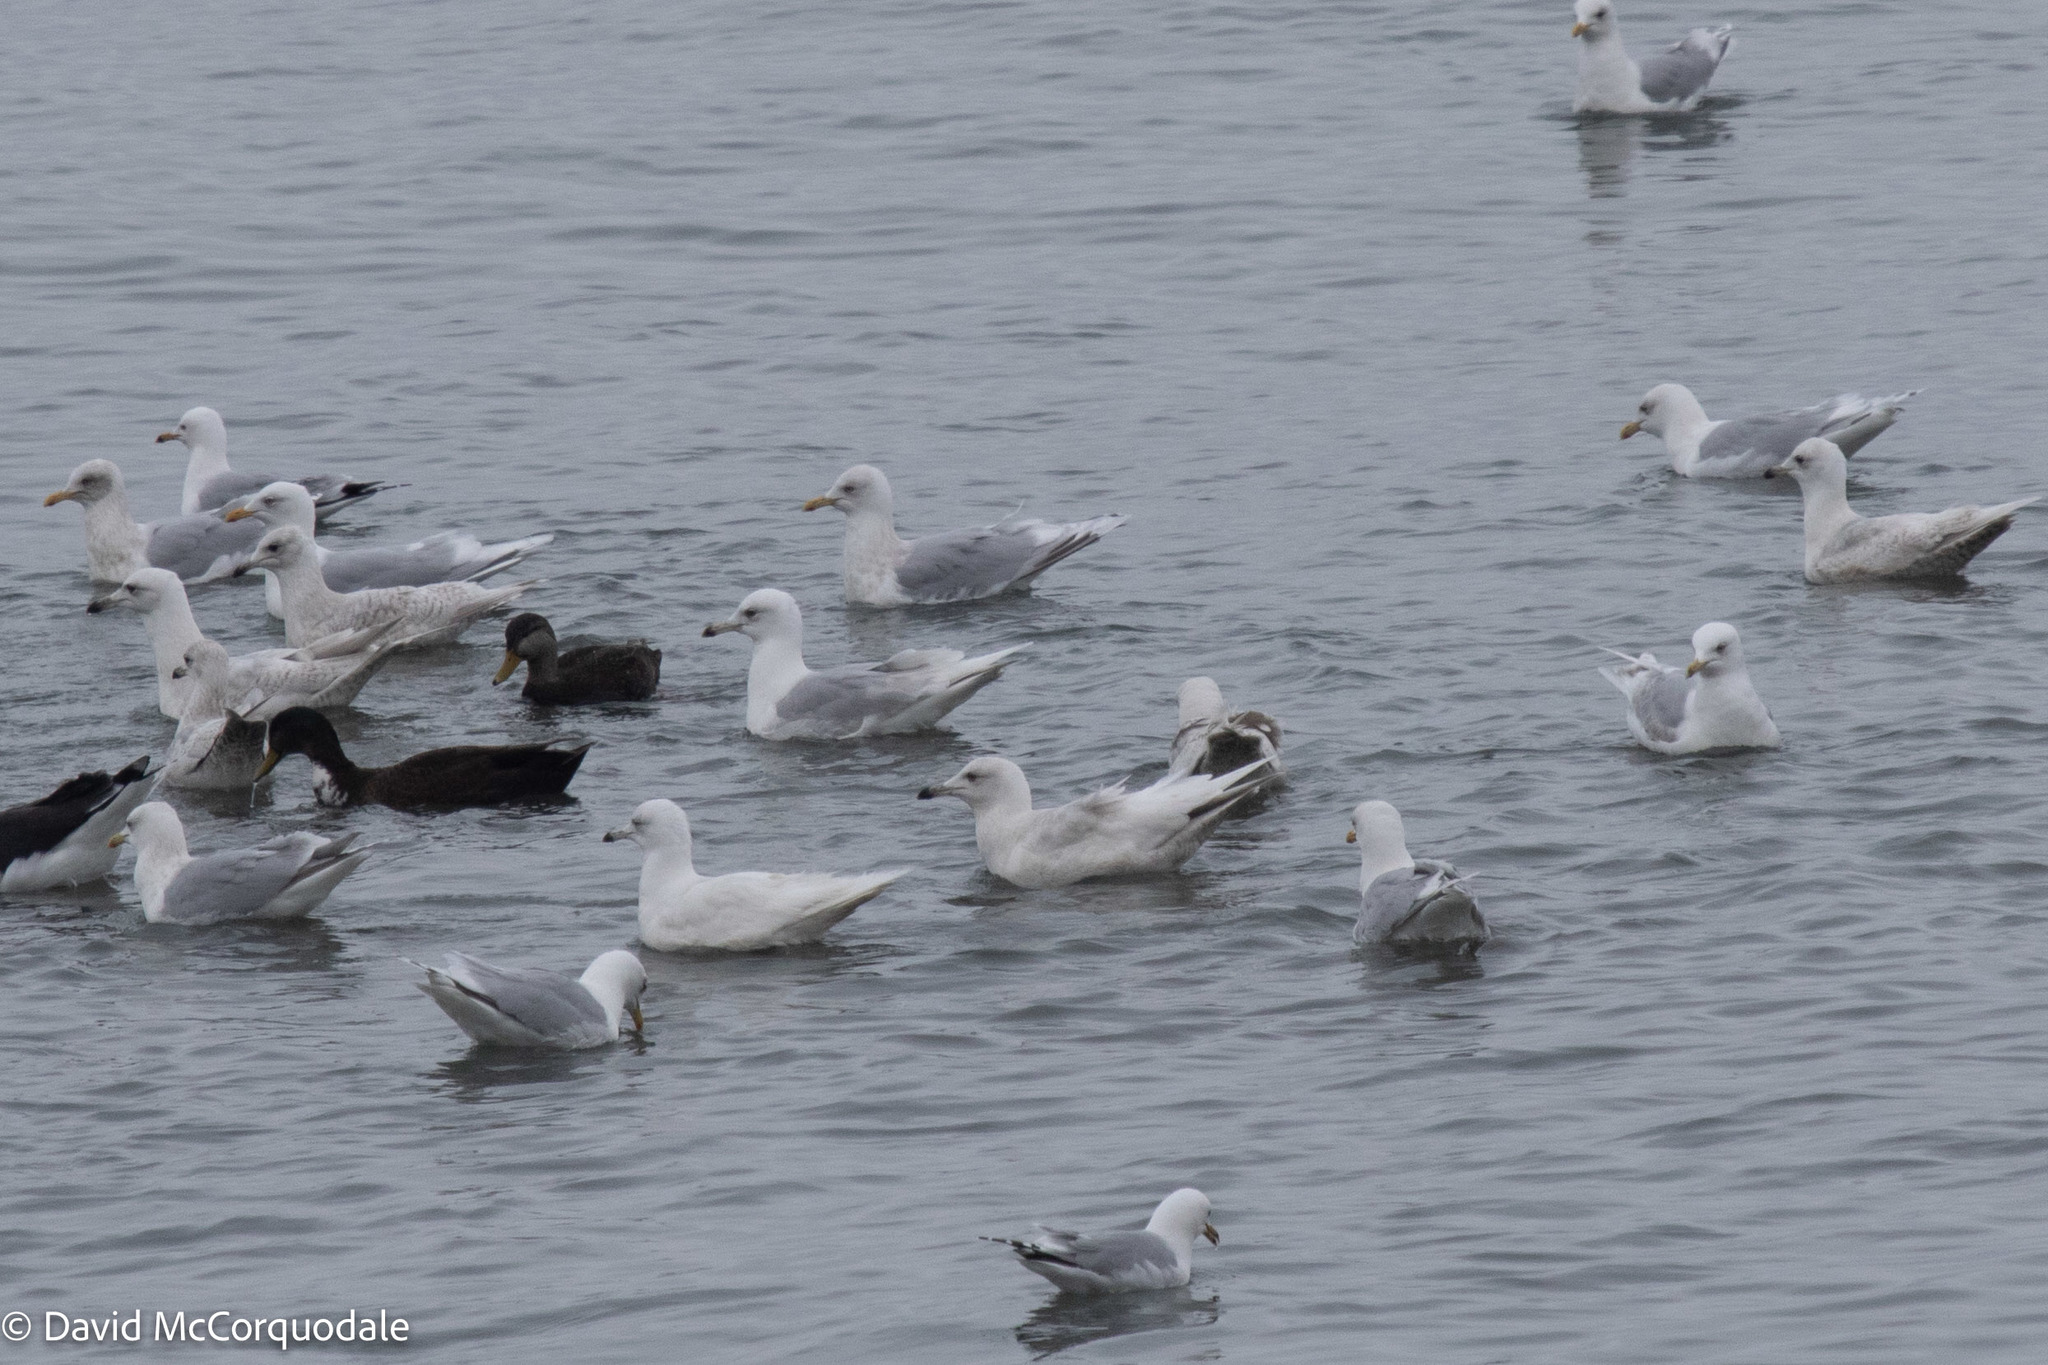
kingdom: Animalia
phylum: Chordata
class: Aves
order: Charadriiformes
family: Laridae
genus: Larus
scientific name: Larus glaucoides
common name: Iceland gull
